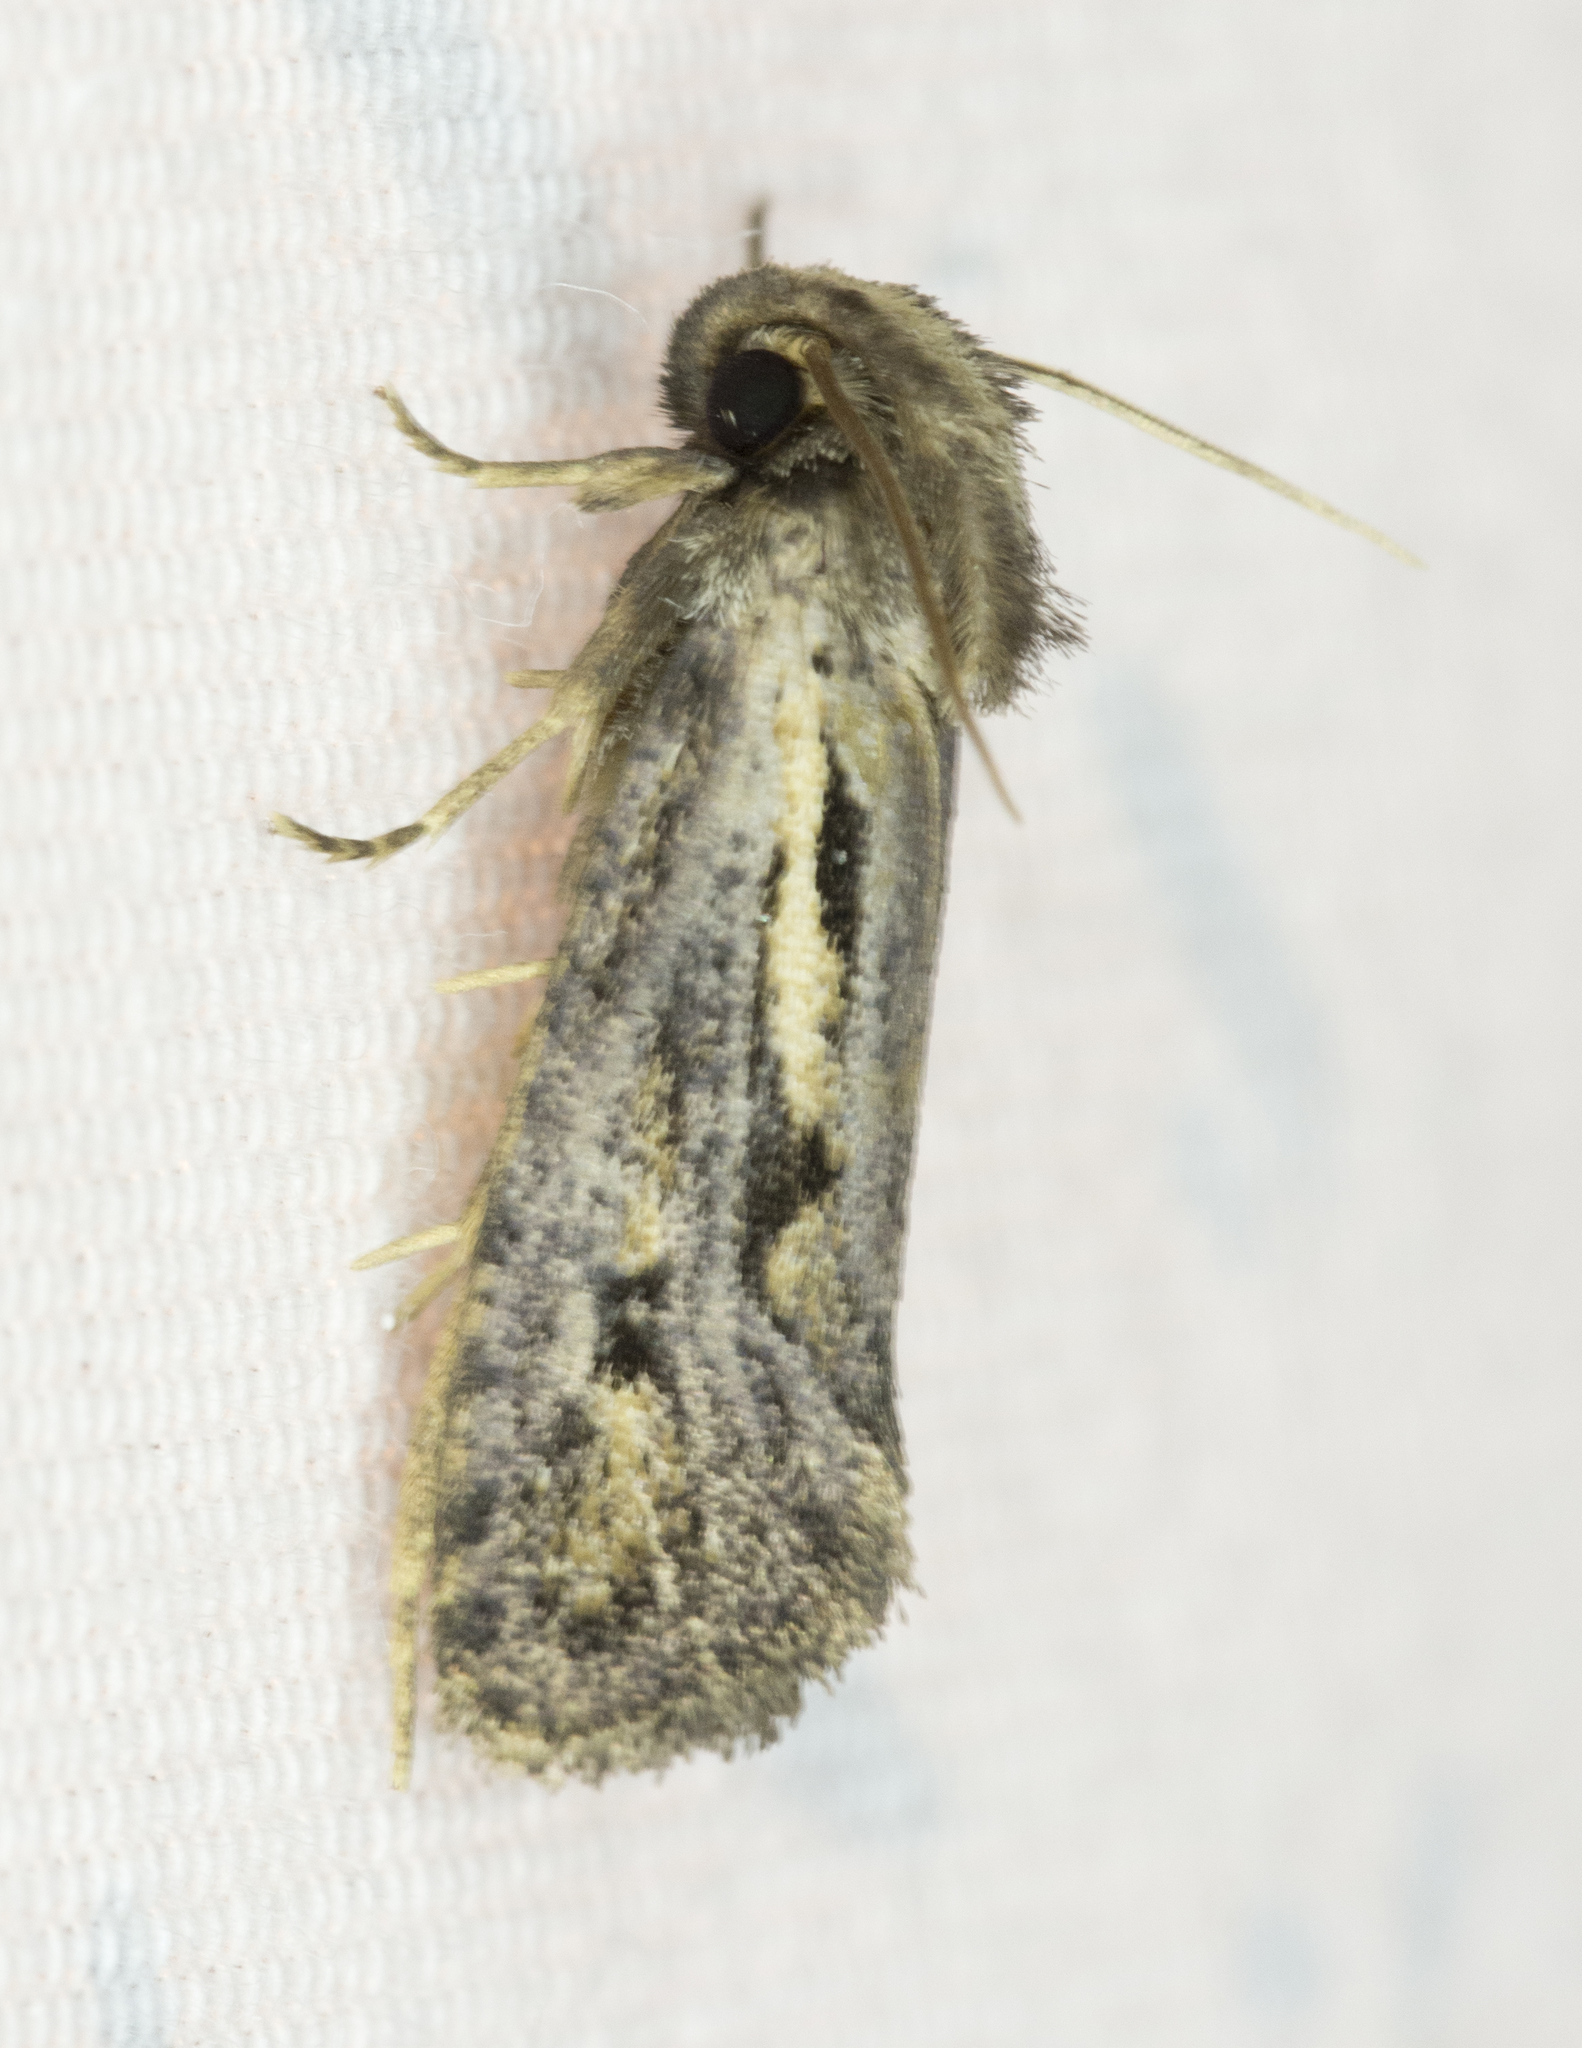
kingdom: Animalia
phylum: Arthropoda
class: Insecta
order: Lepidoptera
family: Tineidae
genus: Acrolophus
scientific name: Acrolophus popeanella
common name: Clemens' grass tubeworm moth
